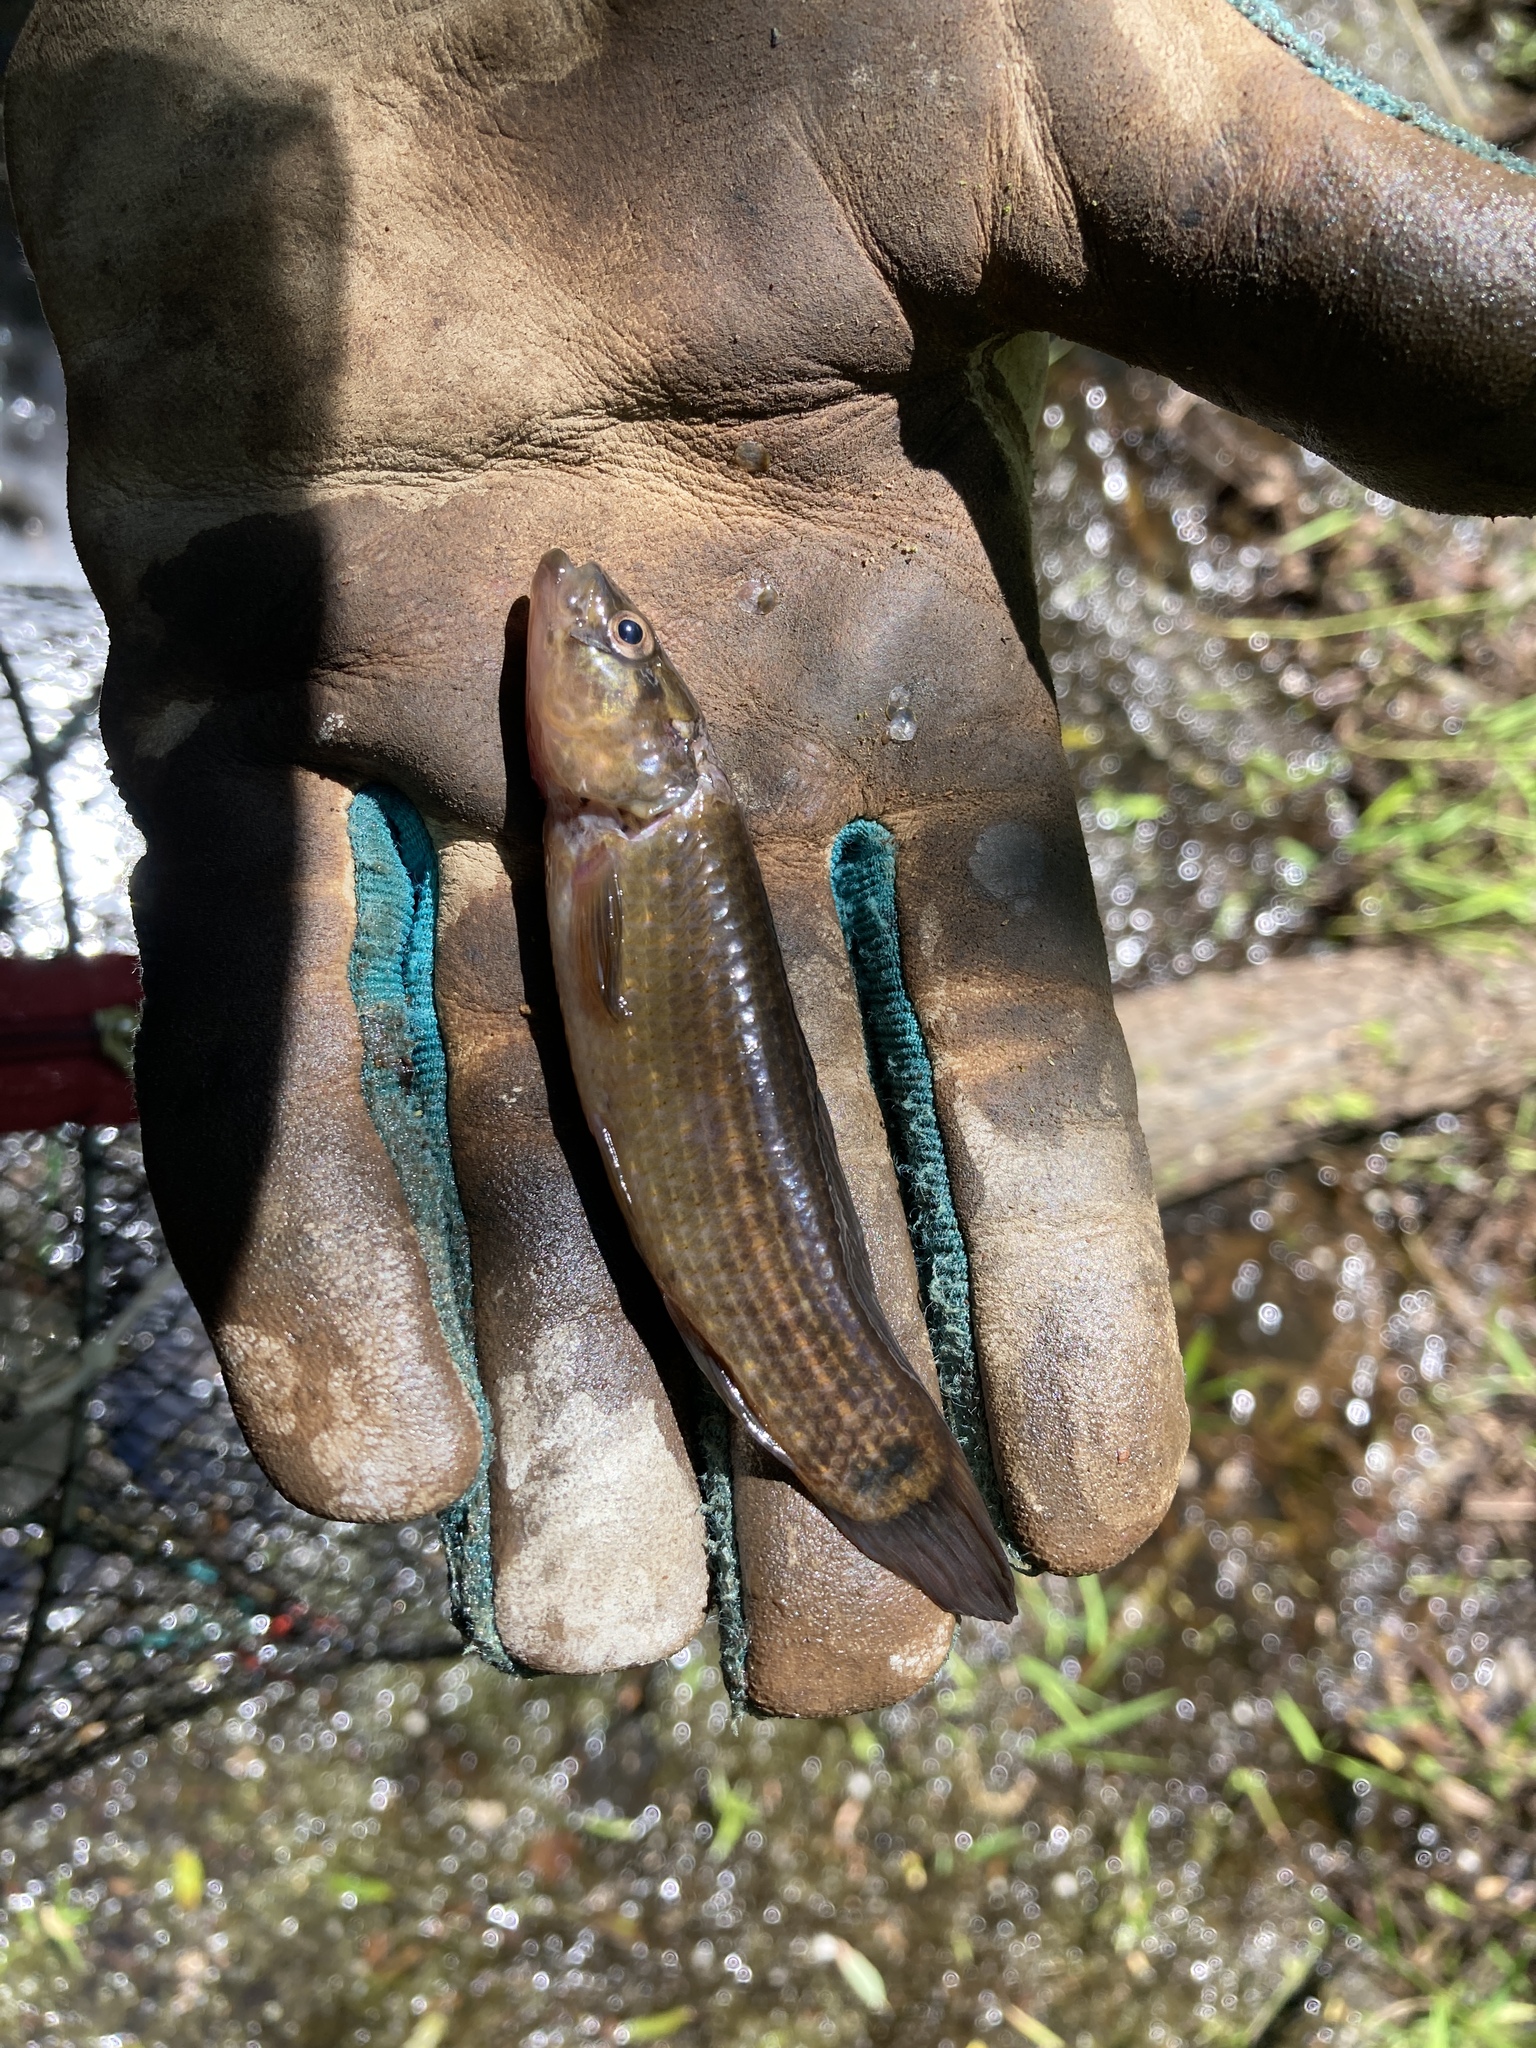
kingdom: Animalia
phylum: Chordata
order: Esociformes
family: Umbridae
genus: Umbra
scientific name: Umbra pygmaea
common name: Eastern mudminnow
